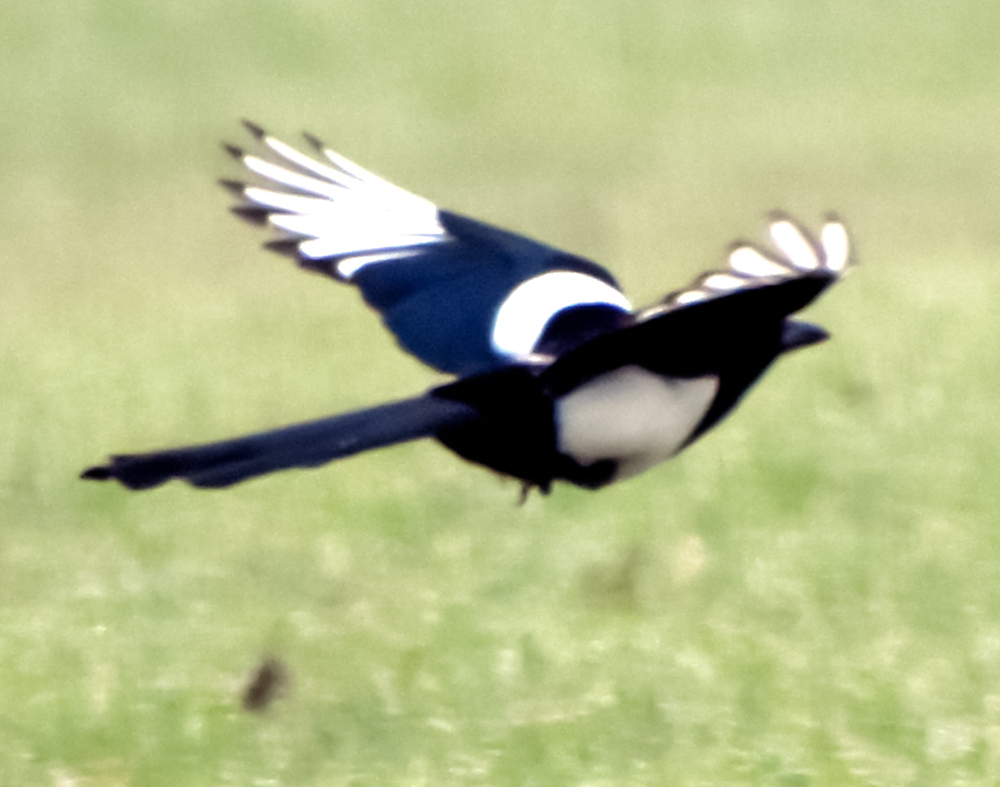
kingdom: Animalia
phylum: Chordata
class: Aves
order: Passeriformes
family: Corvidae
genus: Pica
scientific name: Pica pica
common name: Eurasian magpie
